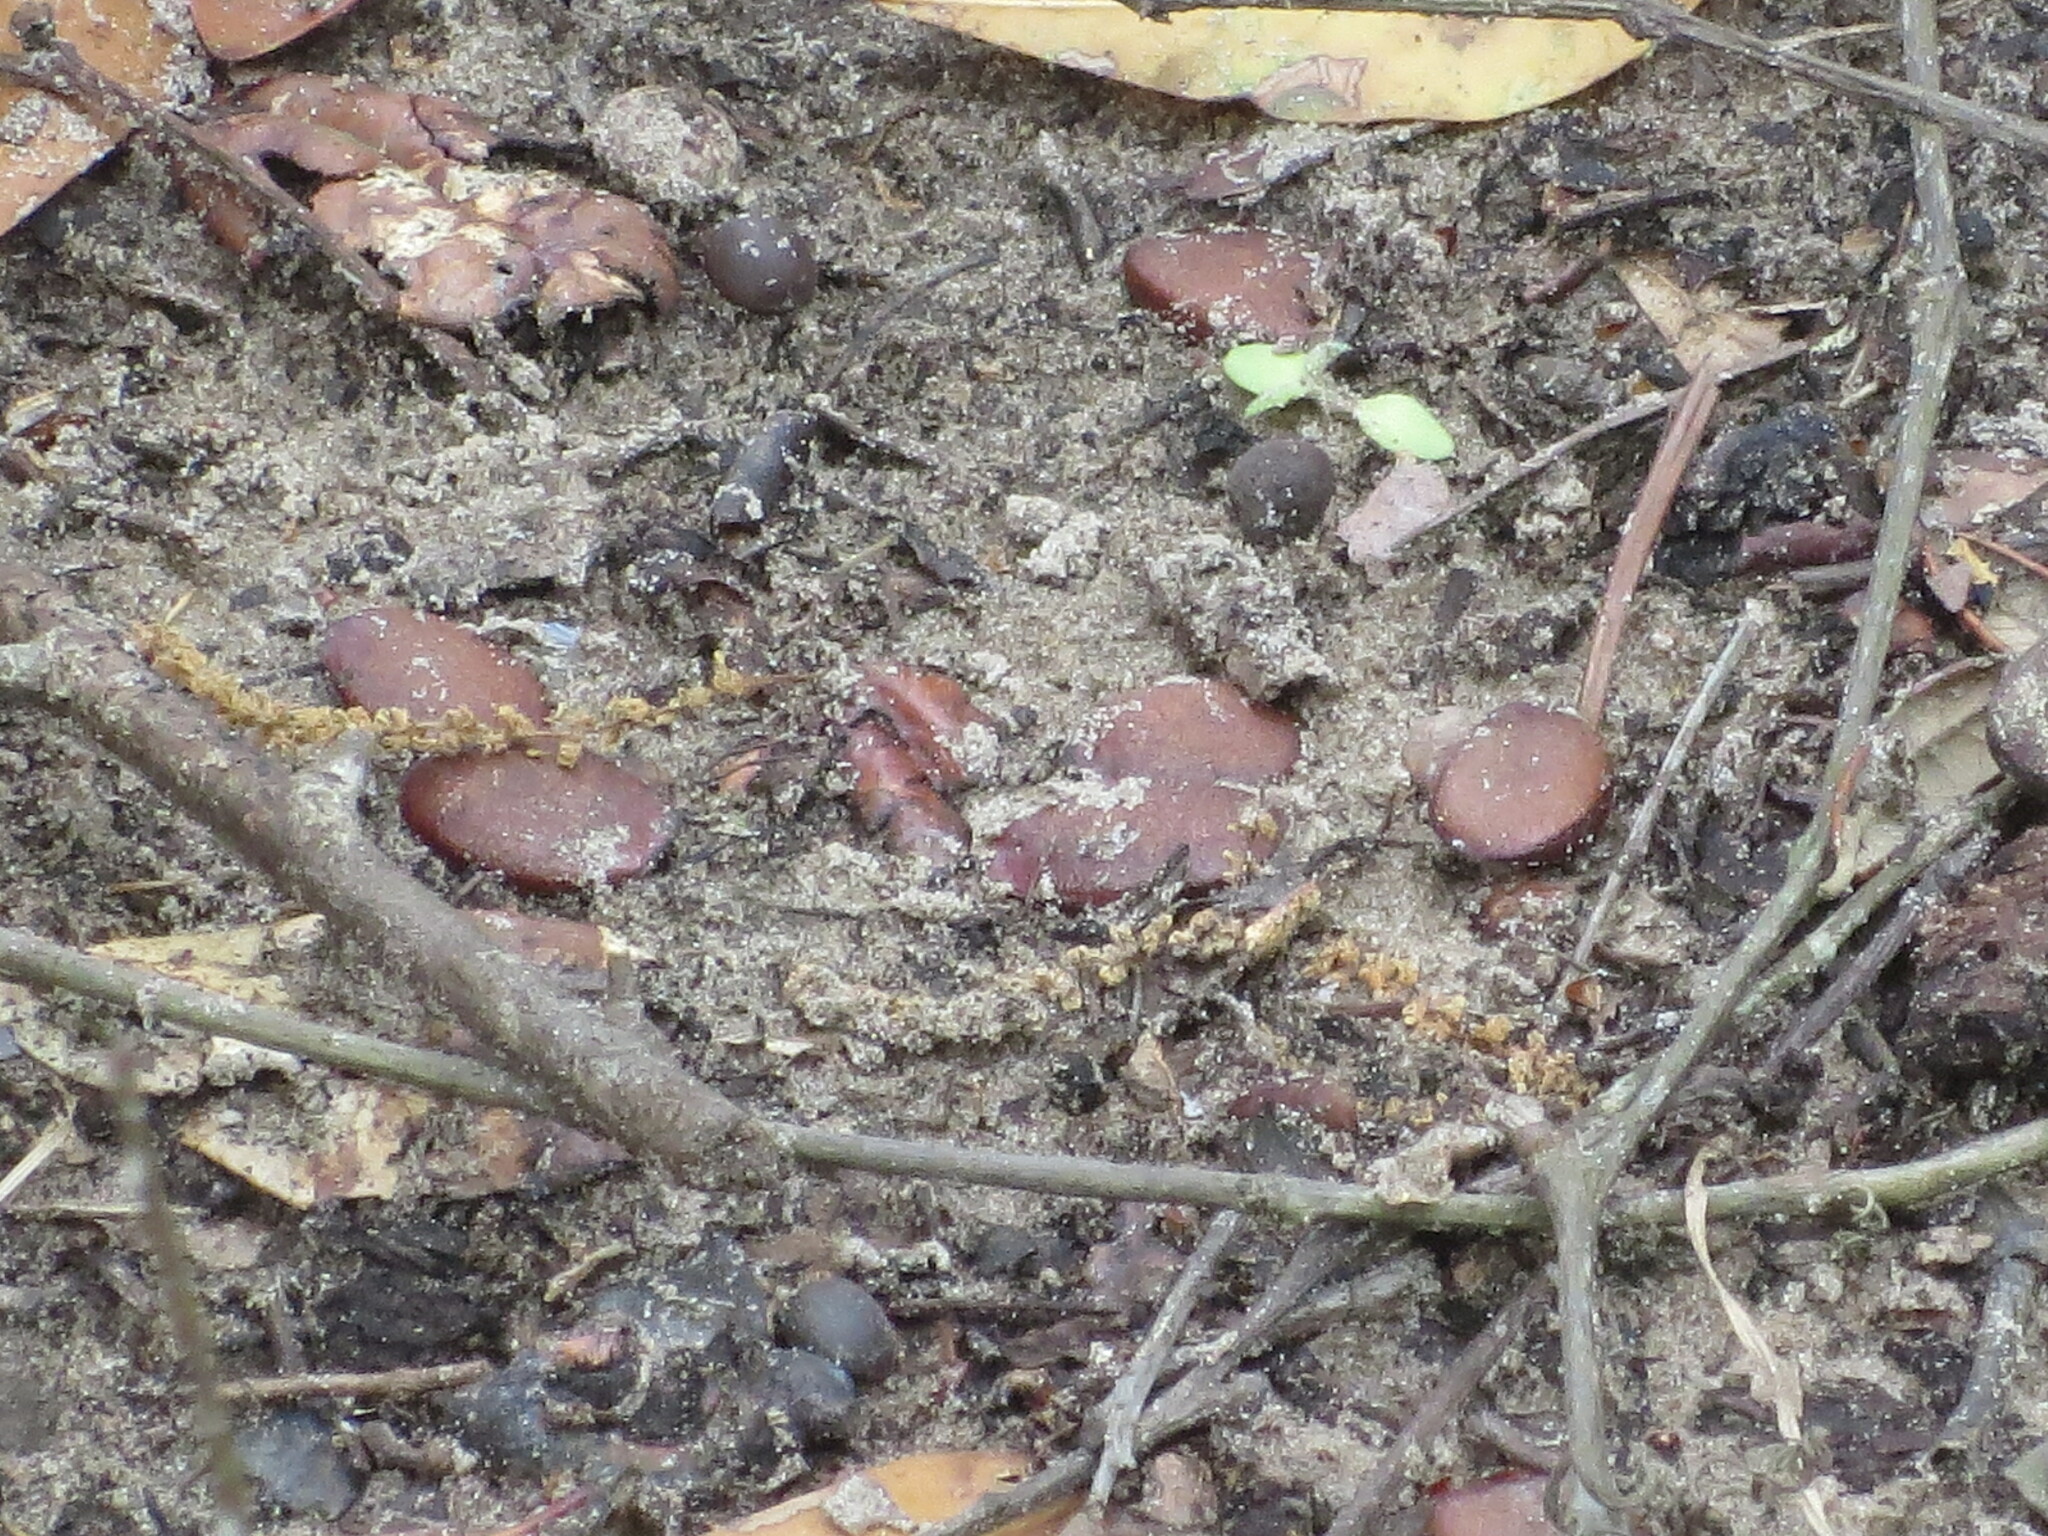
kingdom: Plantae
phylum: Tracheophyta
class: Magnoliopsida
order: Ericales
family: Ebenaceae
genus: Diospyros
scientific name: Diospyros virginiana
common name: Persimmon
